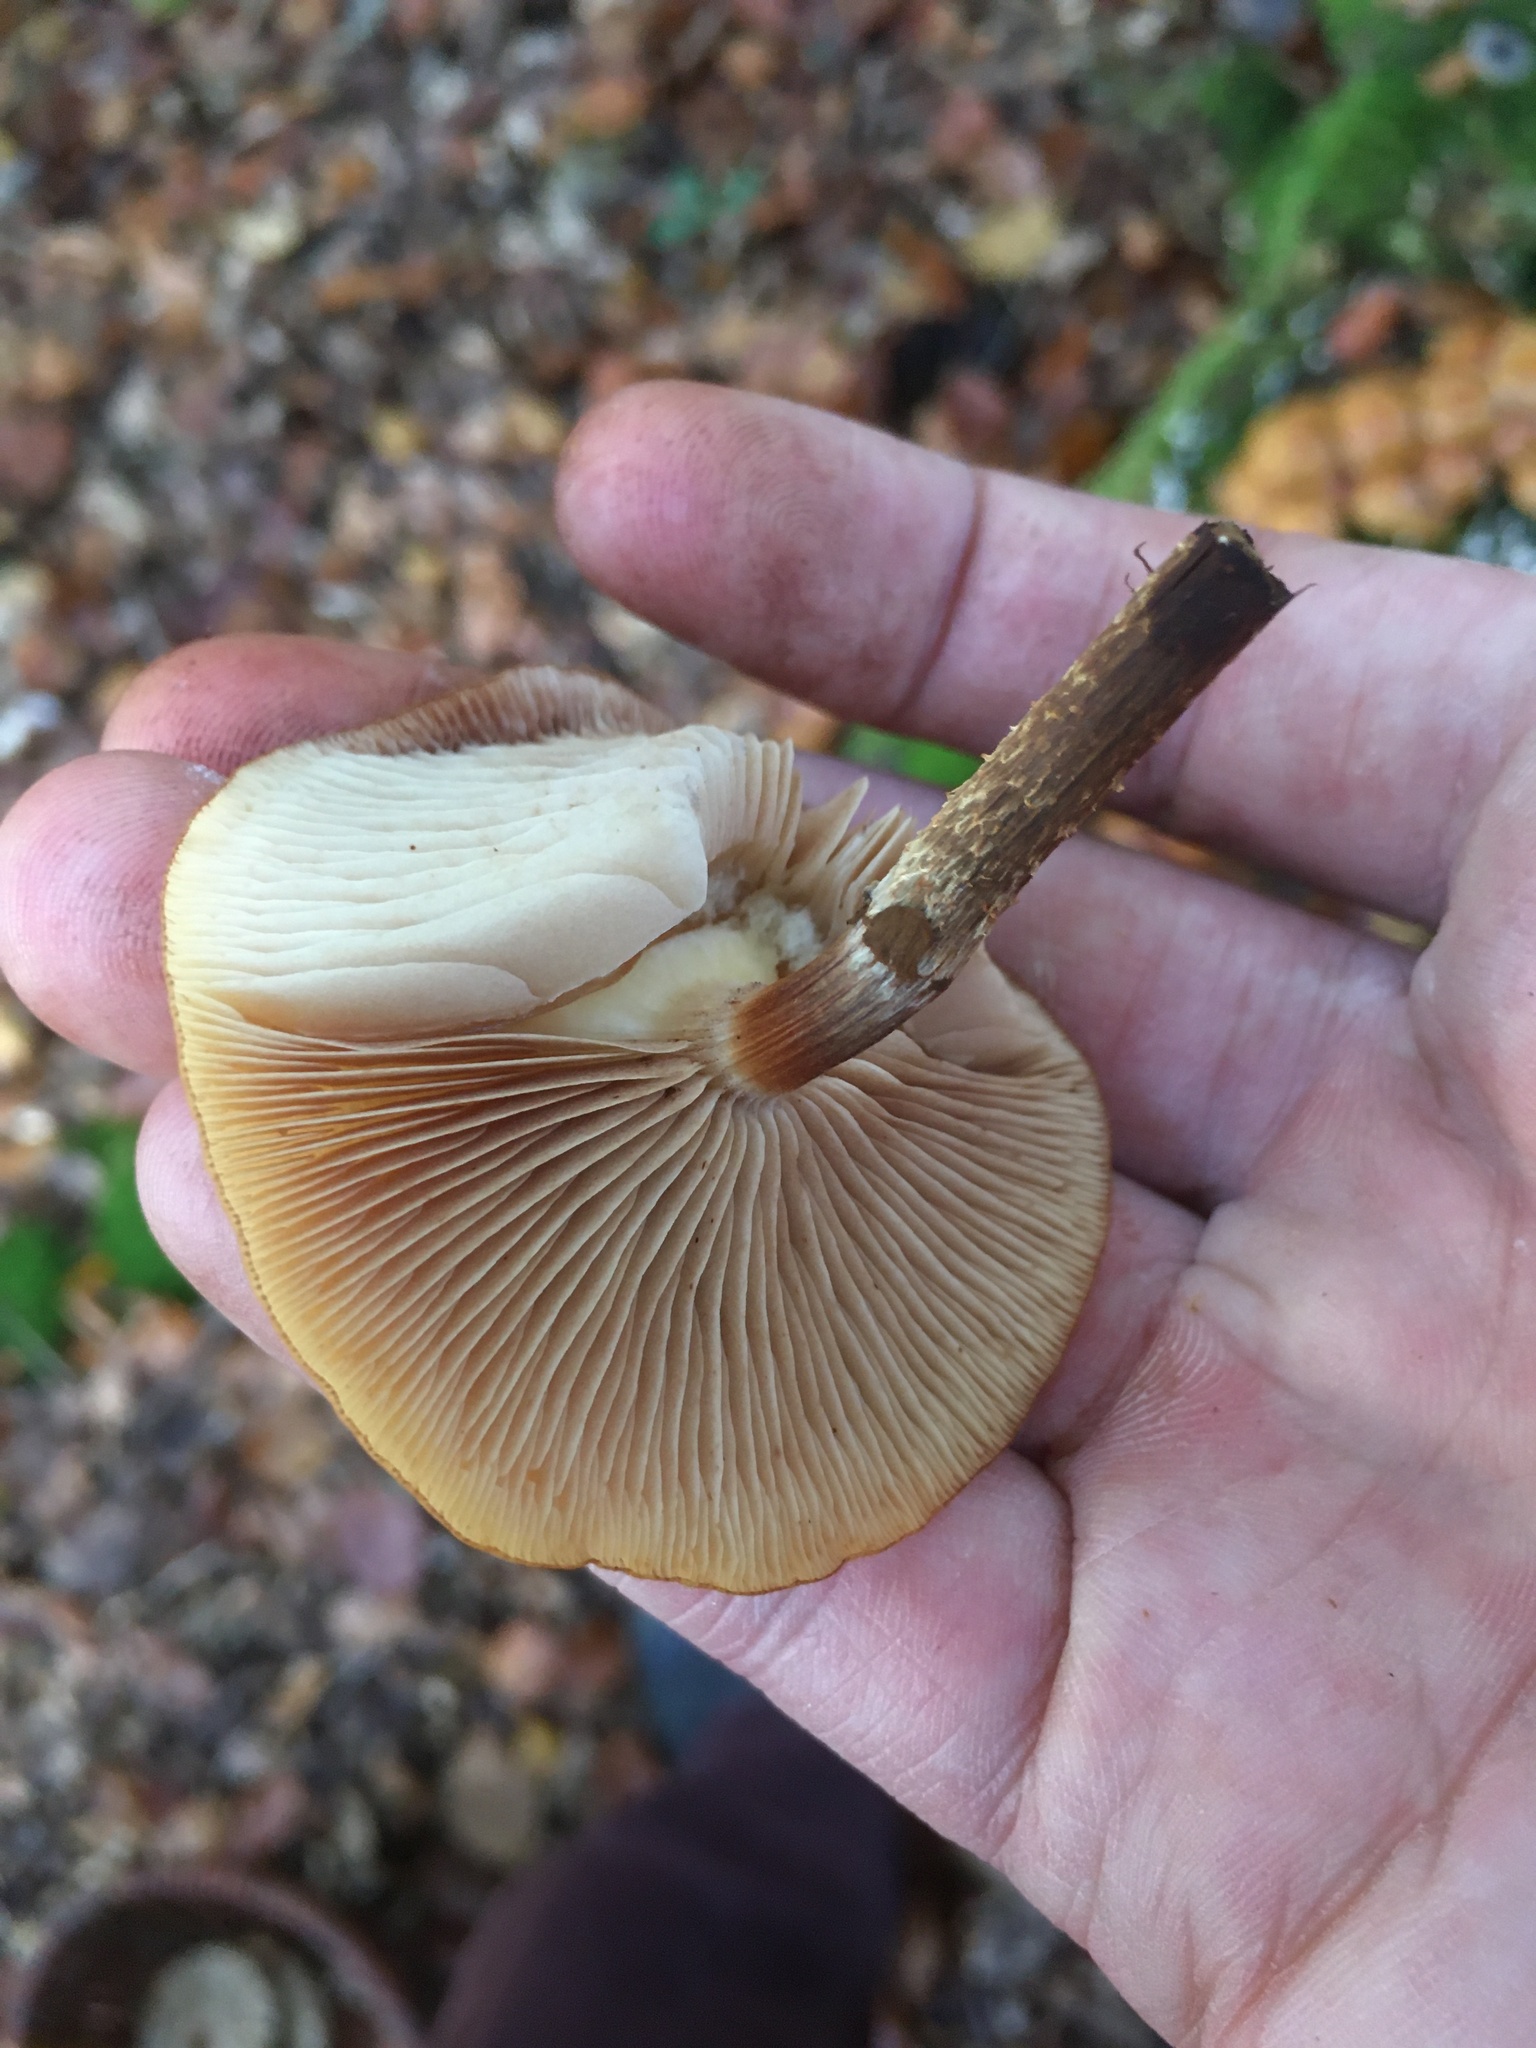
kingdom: Fungi
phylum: Basidiomycota
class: Agaricomycetes
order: Agaricales
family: Strophariaceae
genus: Kuehneromyces
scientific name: Kuehneromyces mutabilis
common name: Sheathed woodtuft
